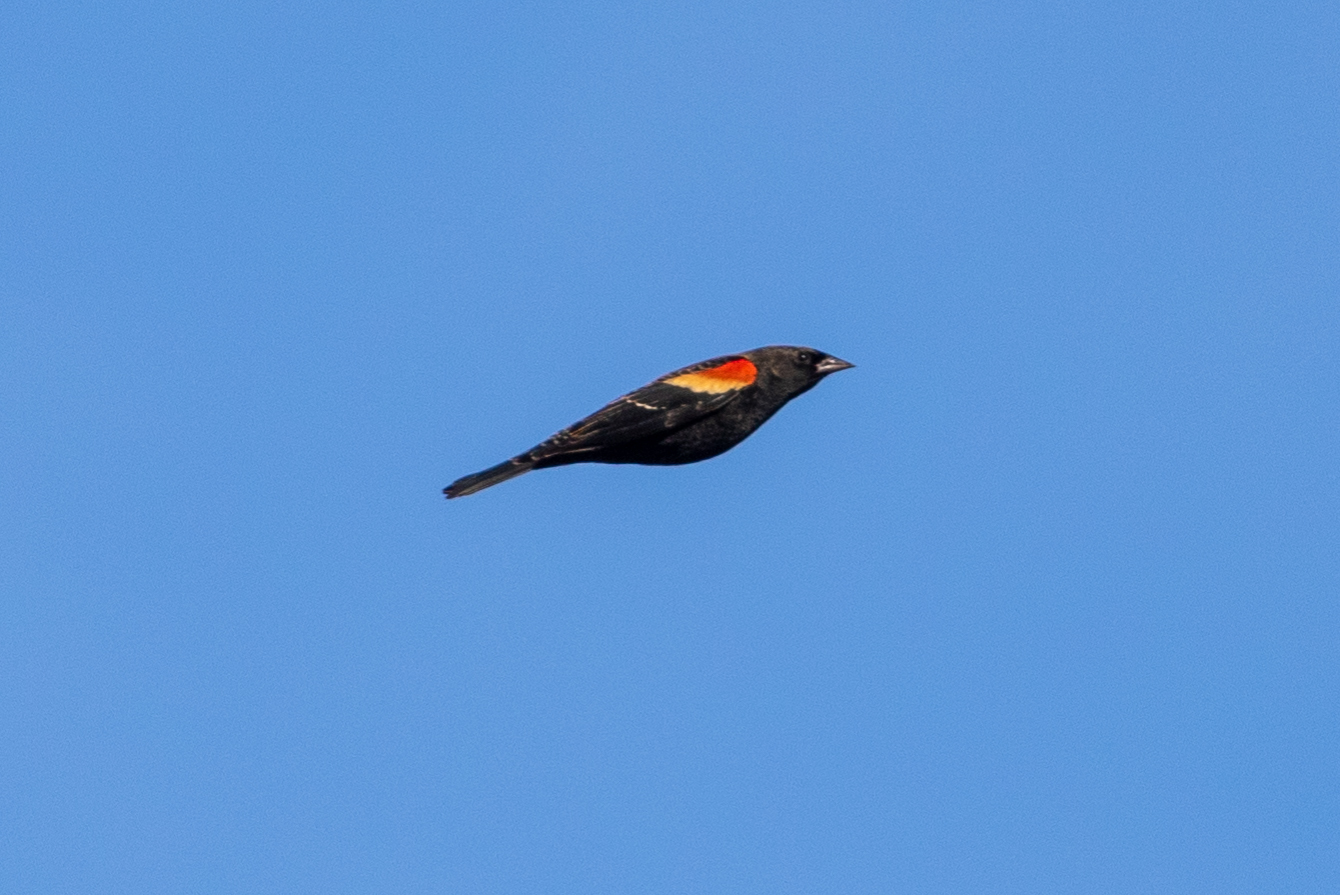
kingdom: Animalia
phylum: Chordata
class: Aves
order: Passeriformes
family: Icteridae
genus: Agelaius
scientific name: Agelaius phoeniceus
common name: Red-winged blackbird
